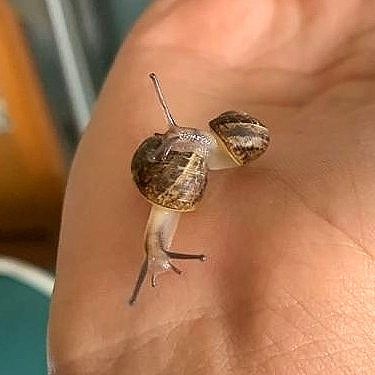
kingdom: Animalia
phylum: Mollusca
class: Gastropoda
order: Stylommatophora
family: Helicidae
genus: Cornu
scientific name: Cornu aspersum
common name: Brown garden snail
